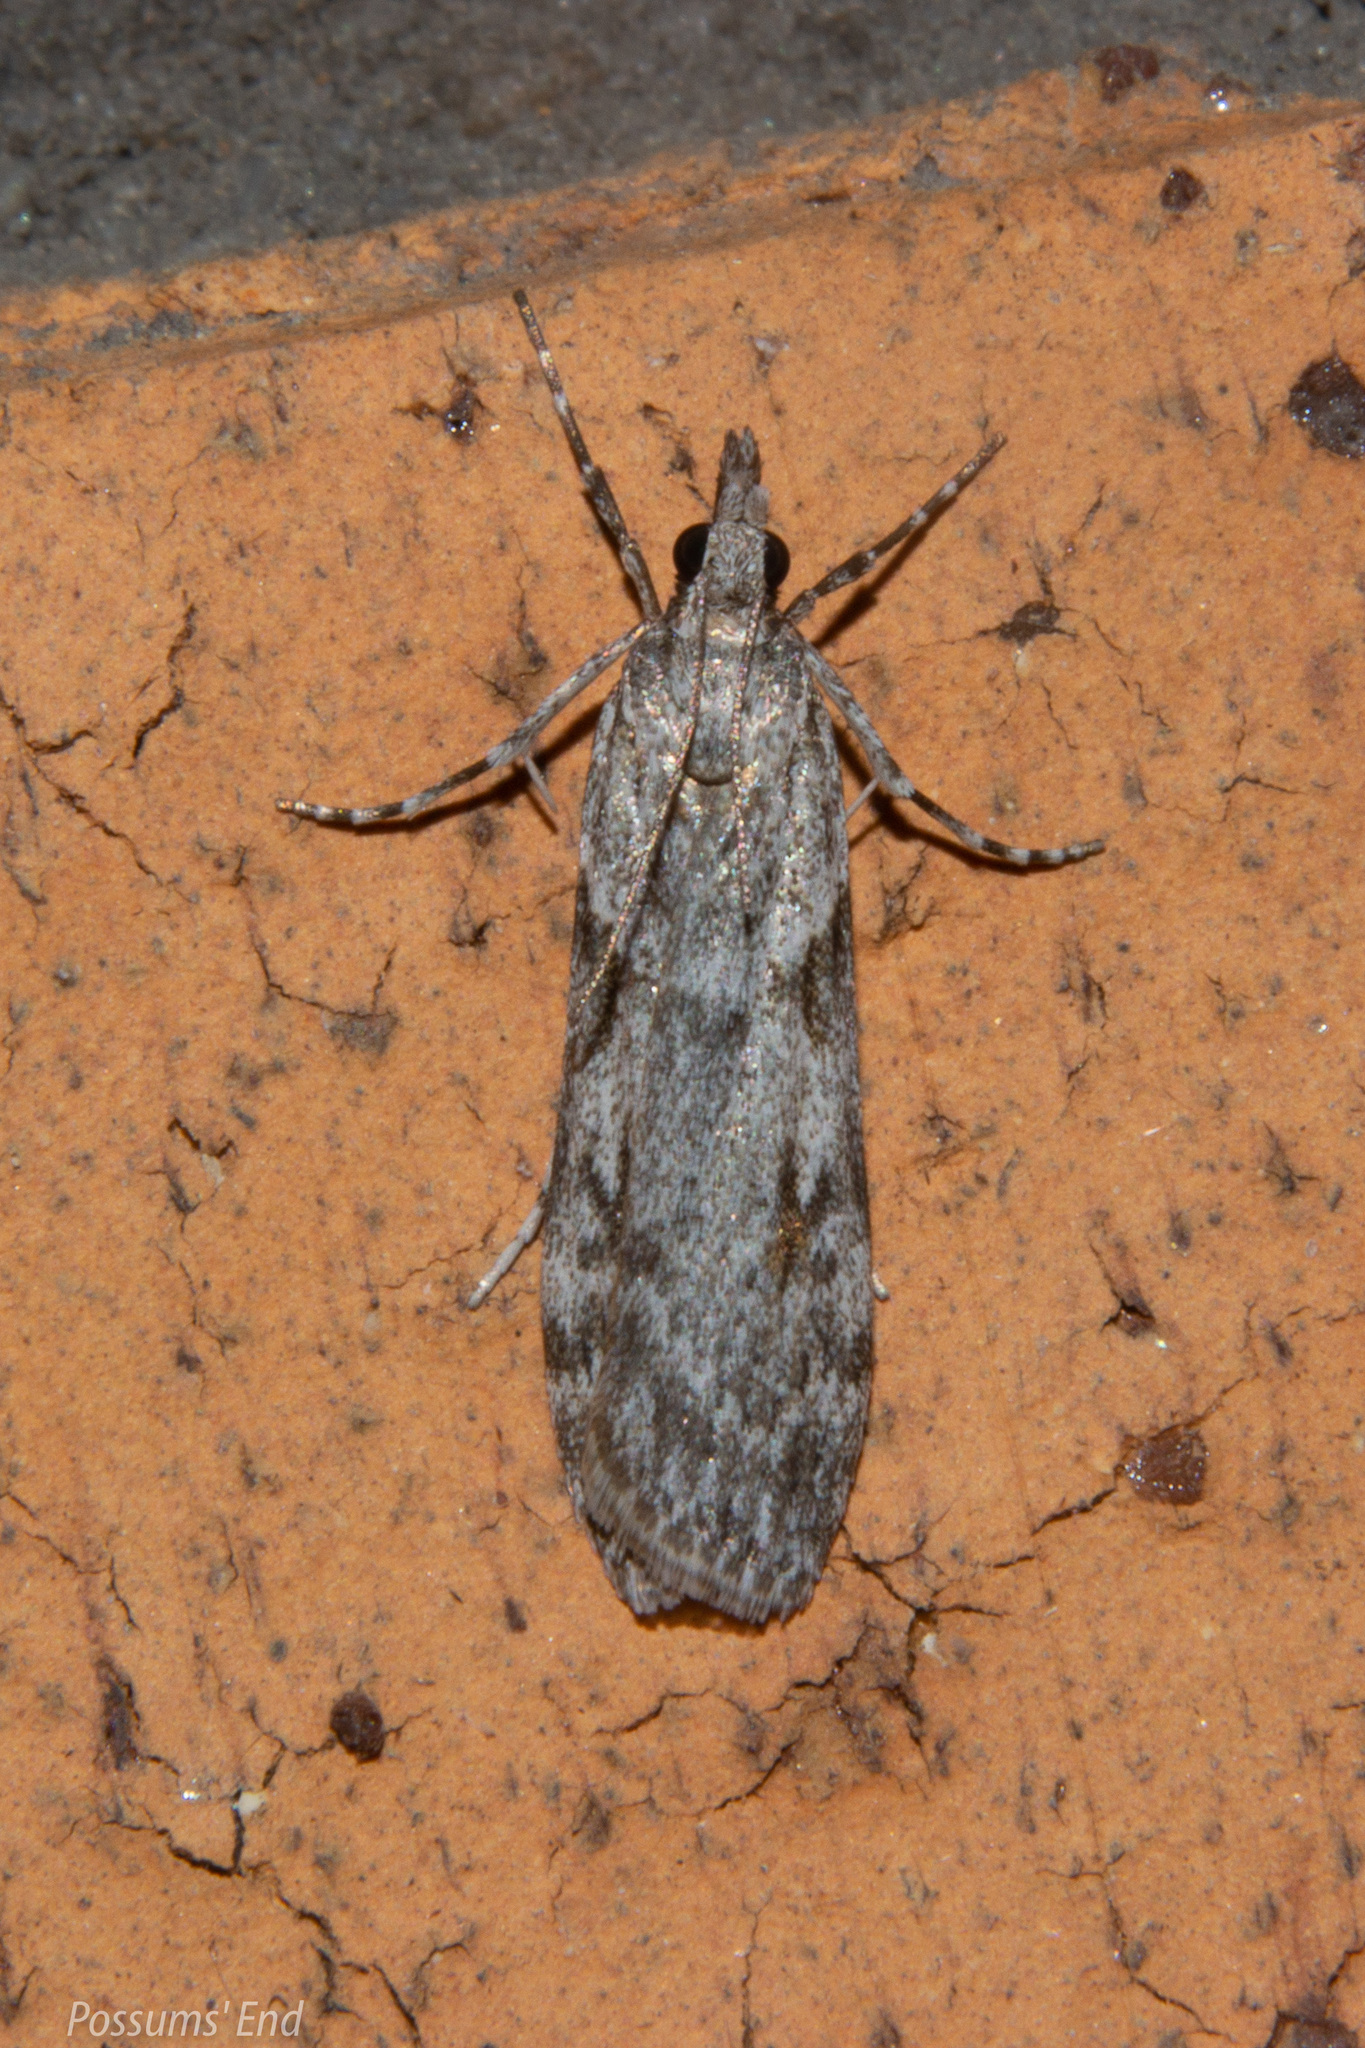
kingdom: Animalia
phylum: Arthropoda
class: Insecta
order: Lepidoptera
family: Crambidae
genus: Scoparia
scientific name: Scoparia halopis
